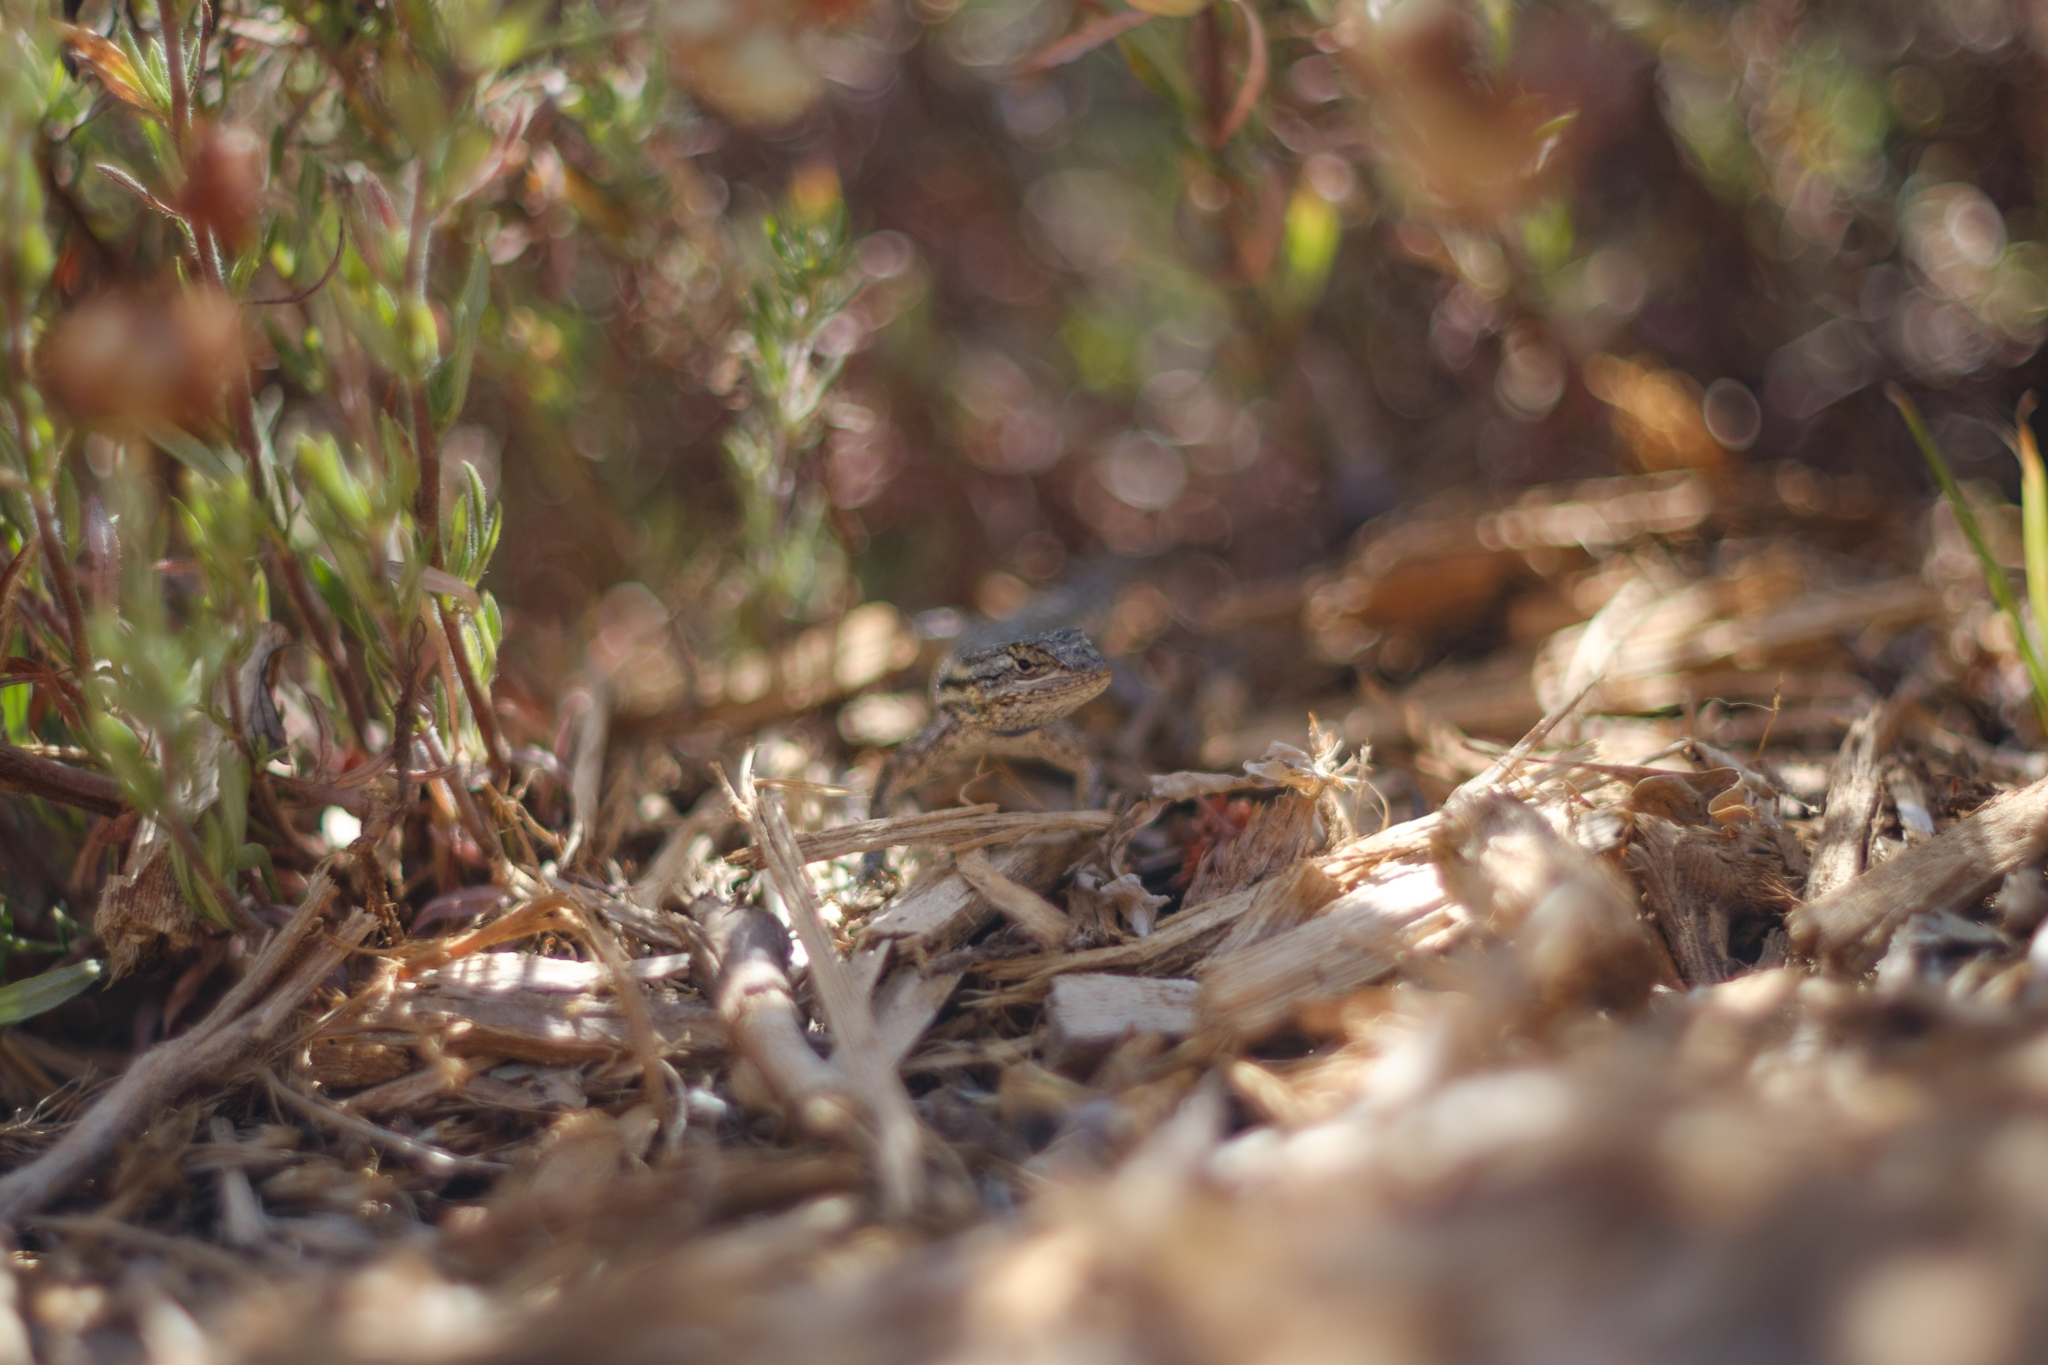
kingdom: Animalia
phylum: Chordata
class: Squamata
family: Phrynosomatidae
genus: Sceloporus
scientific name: Sceloporus occidentalis
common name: Western fence lizard
